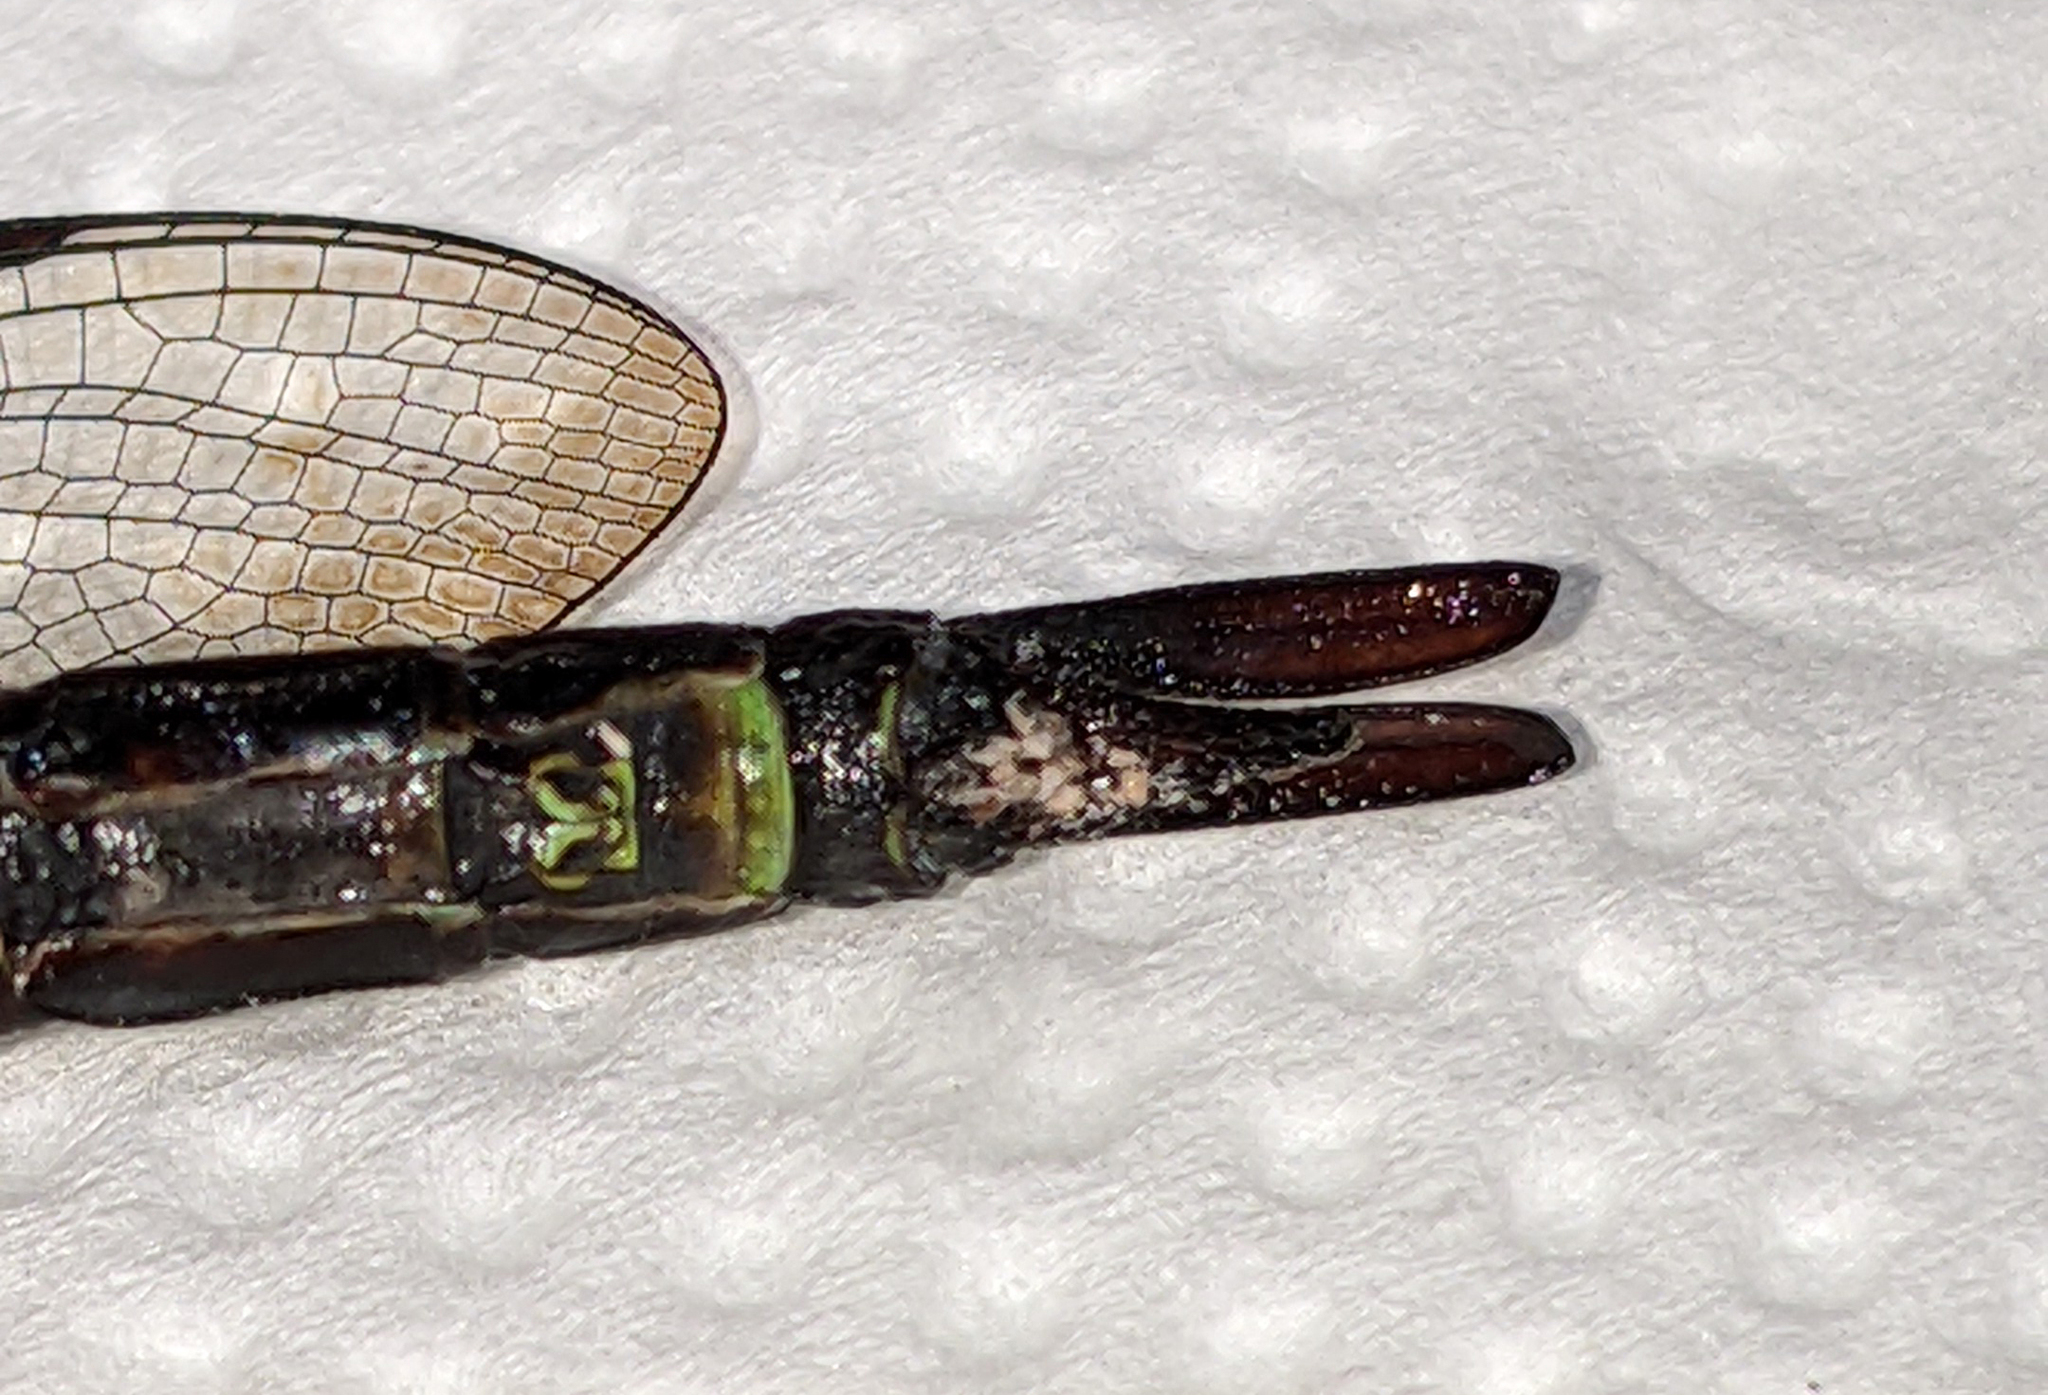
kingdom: Animalia
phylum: Arthropoda
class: Insecta
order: Odonata
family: Aeshnidae
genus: Coryphaeschna
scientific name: Coryphaeschna viriditas
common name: Mangrove darner
